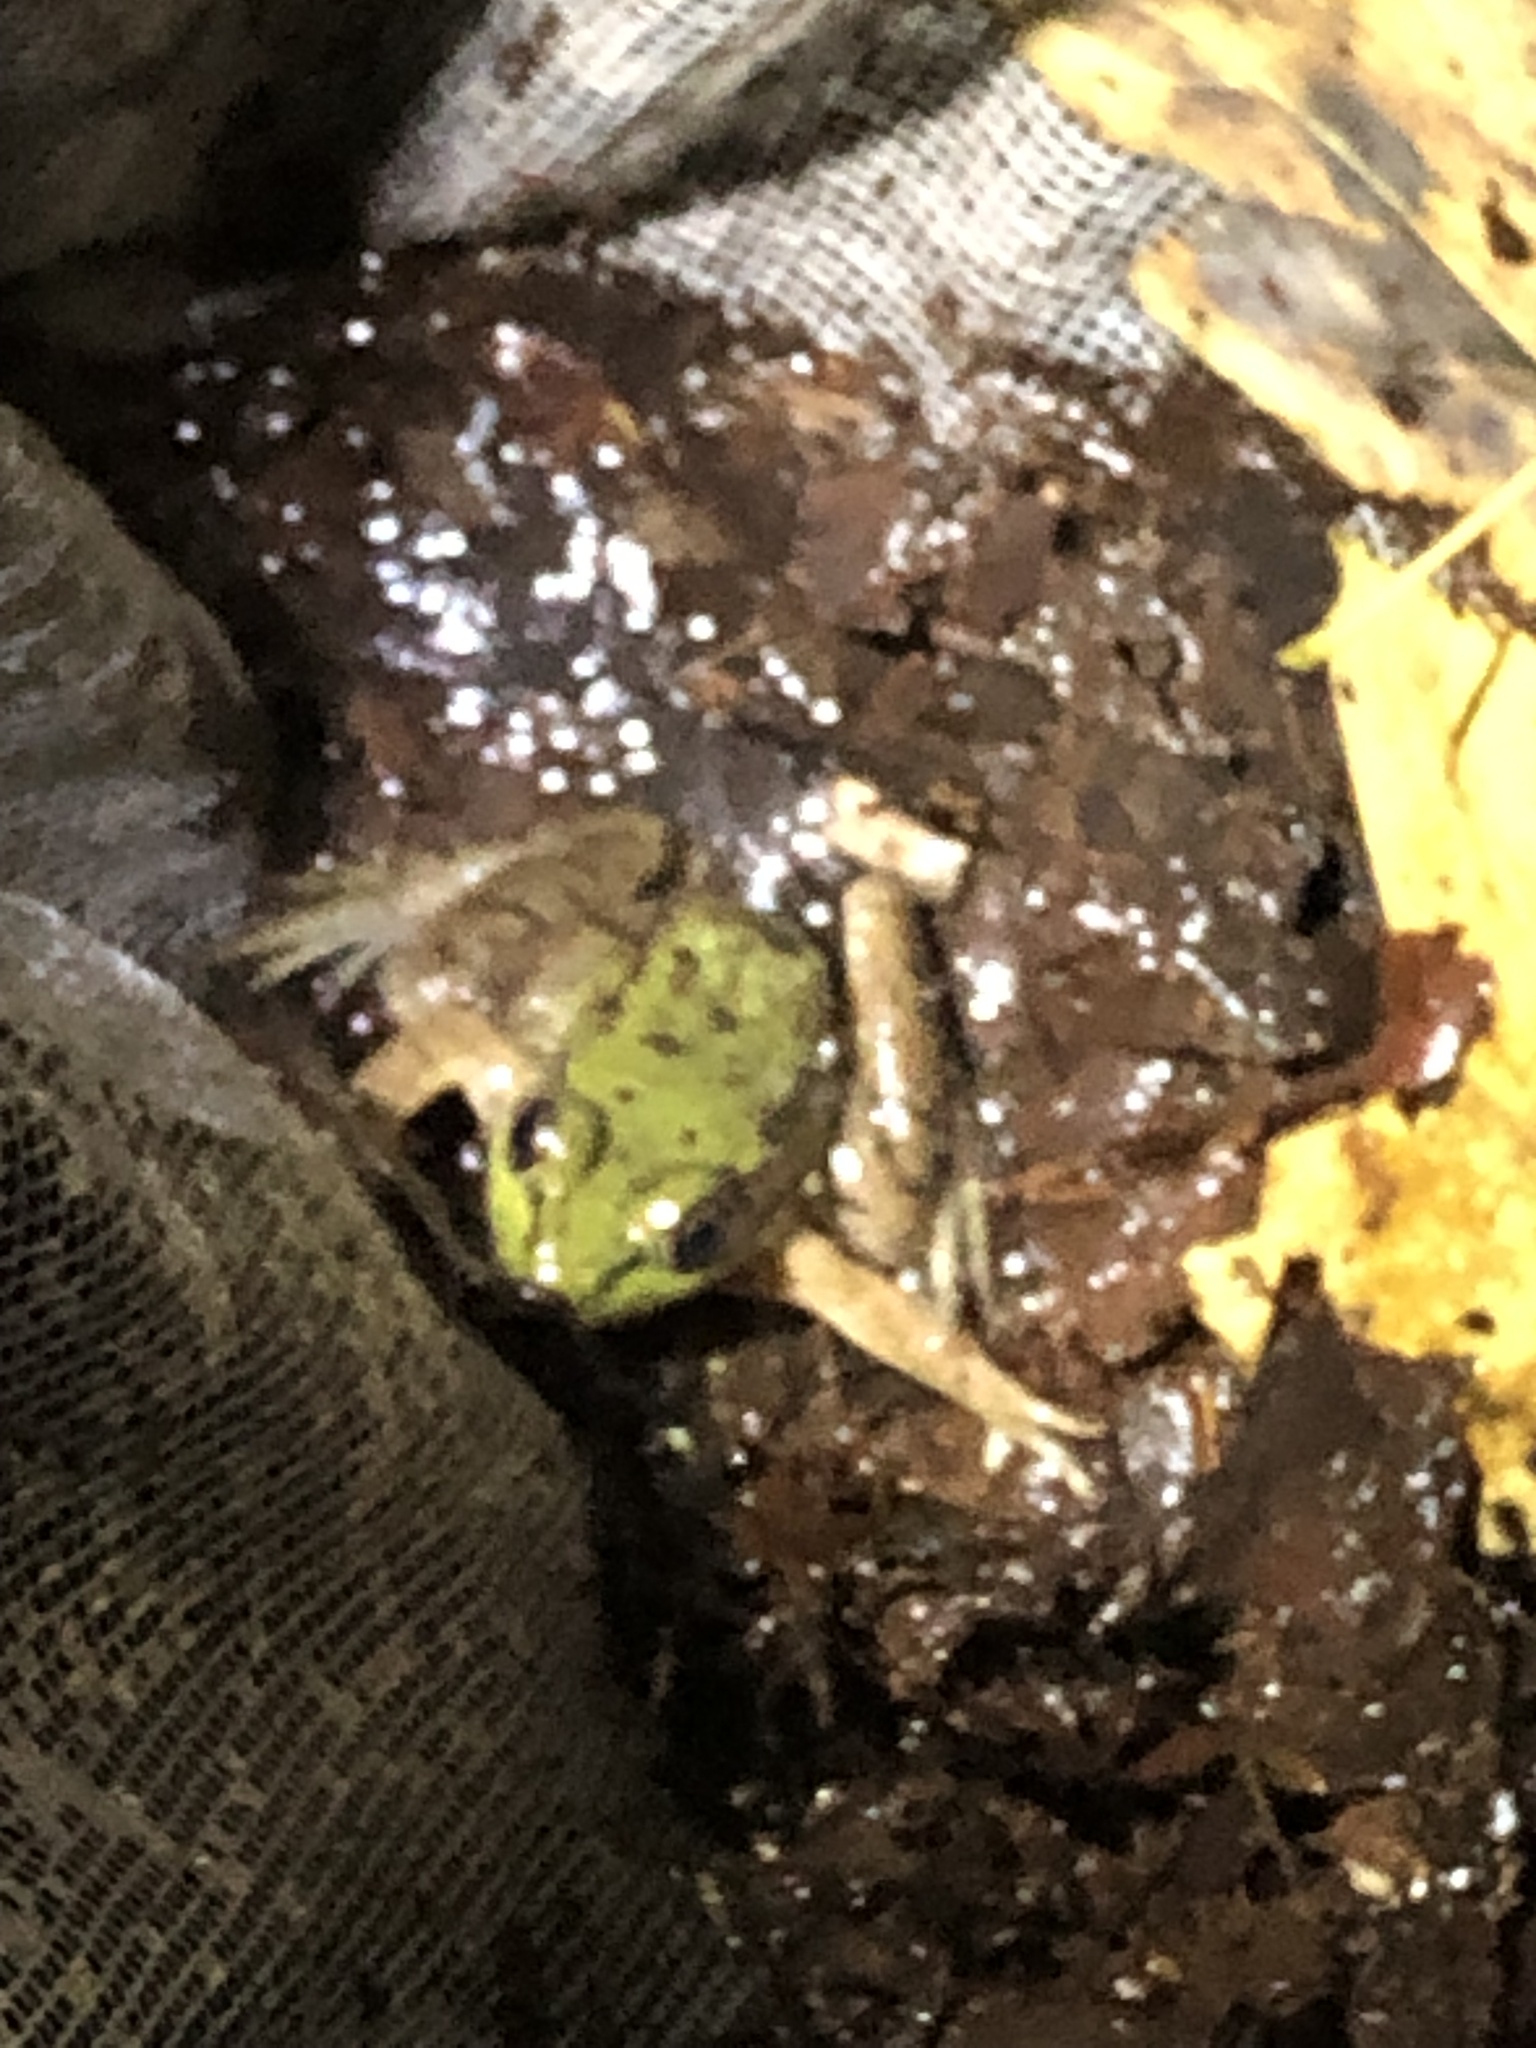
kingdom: Animalia
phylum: Chordata
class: Amphibia
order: Anura
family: Ranidae
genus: Lithobates
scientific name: Lithobates clamitans
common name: Green frog
